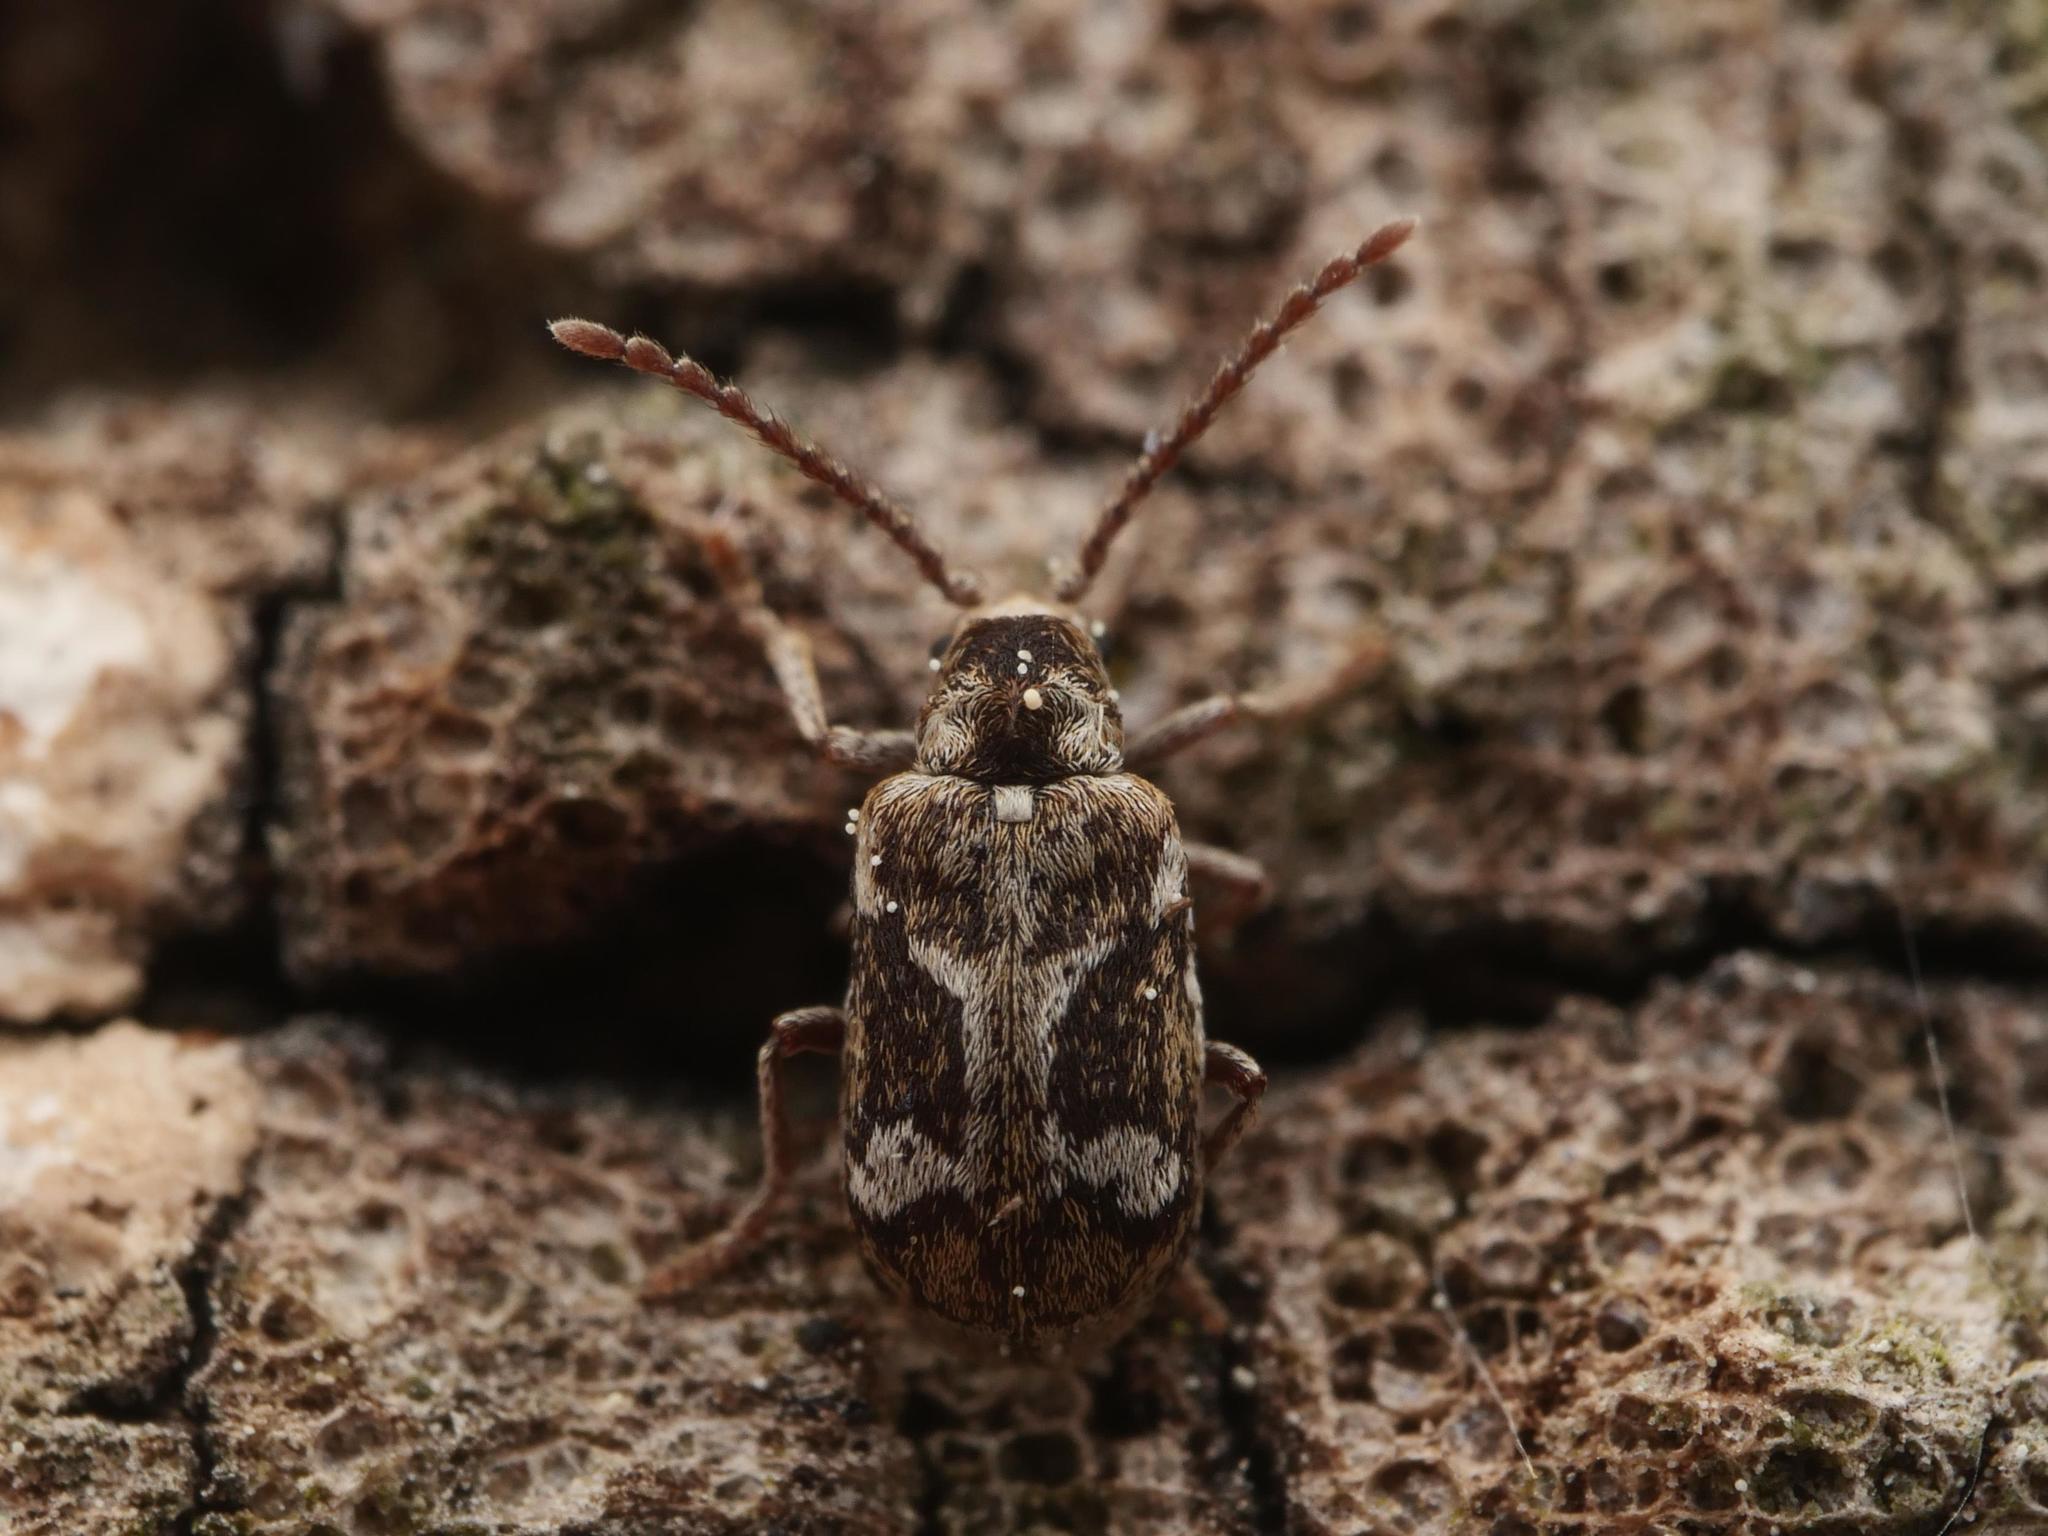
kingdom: Animalia
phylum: Arthropoda
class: Insecta
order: Coleoptera
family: Anobiidae
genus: Ptinomorphus
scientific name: Ptinomorphus imperialis
